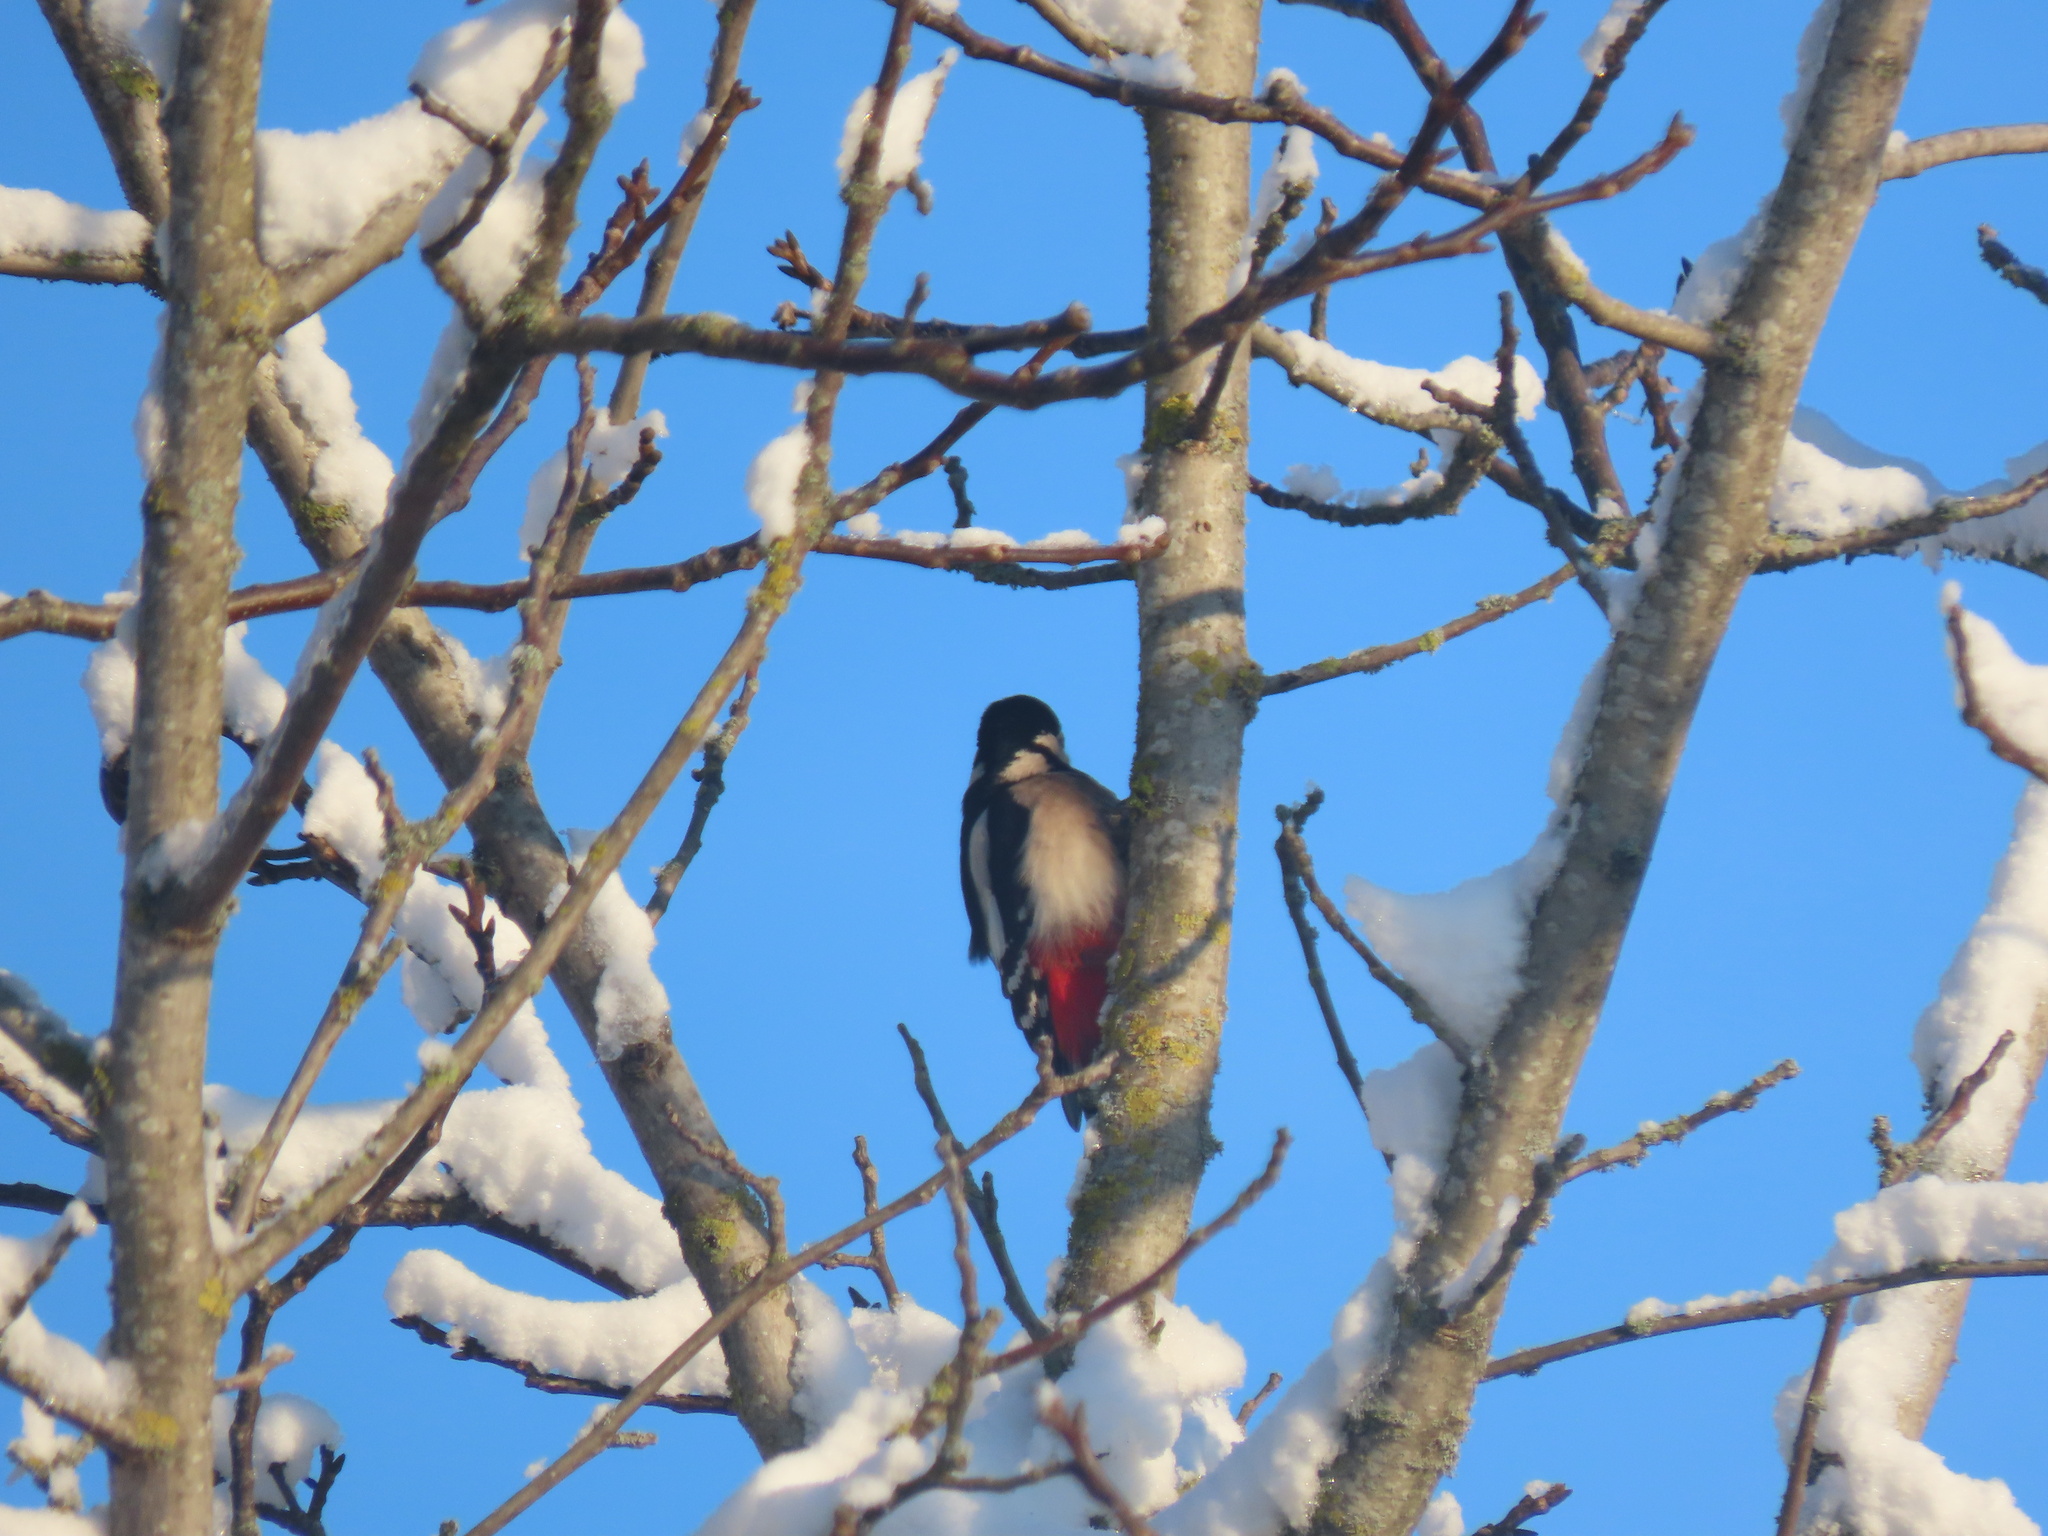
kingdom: Animalia
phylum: Chordata
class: Aves
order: Piciformes
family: Picidae
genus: Dendrocopos
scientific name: Dendrocopos major
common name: Great spotted woodpecker
